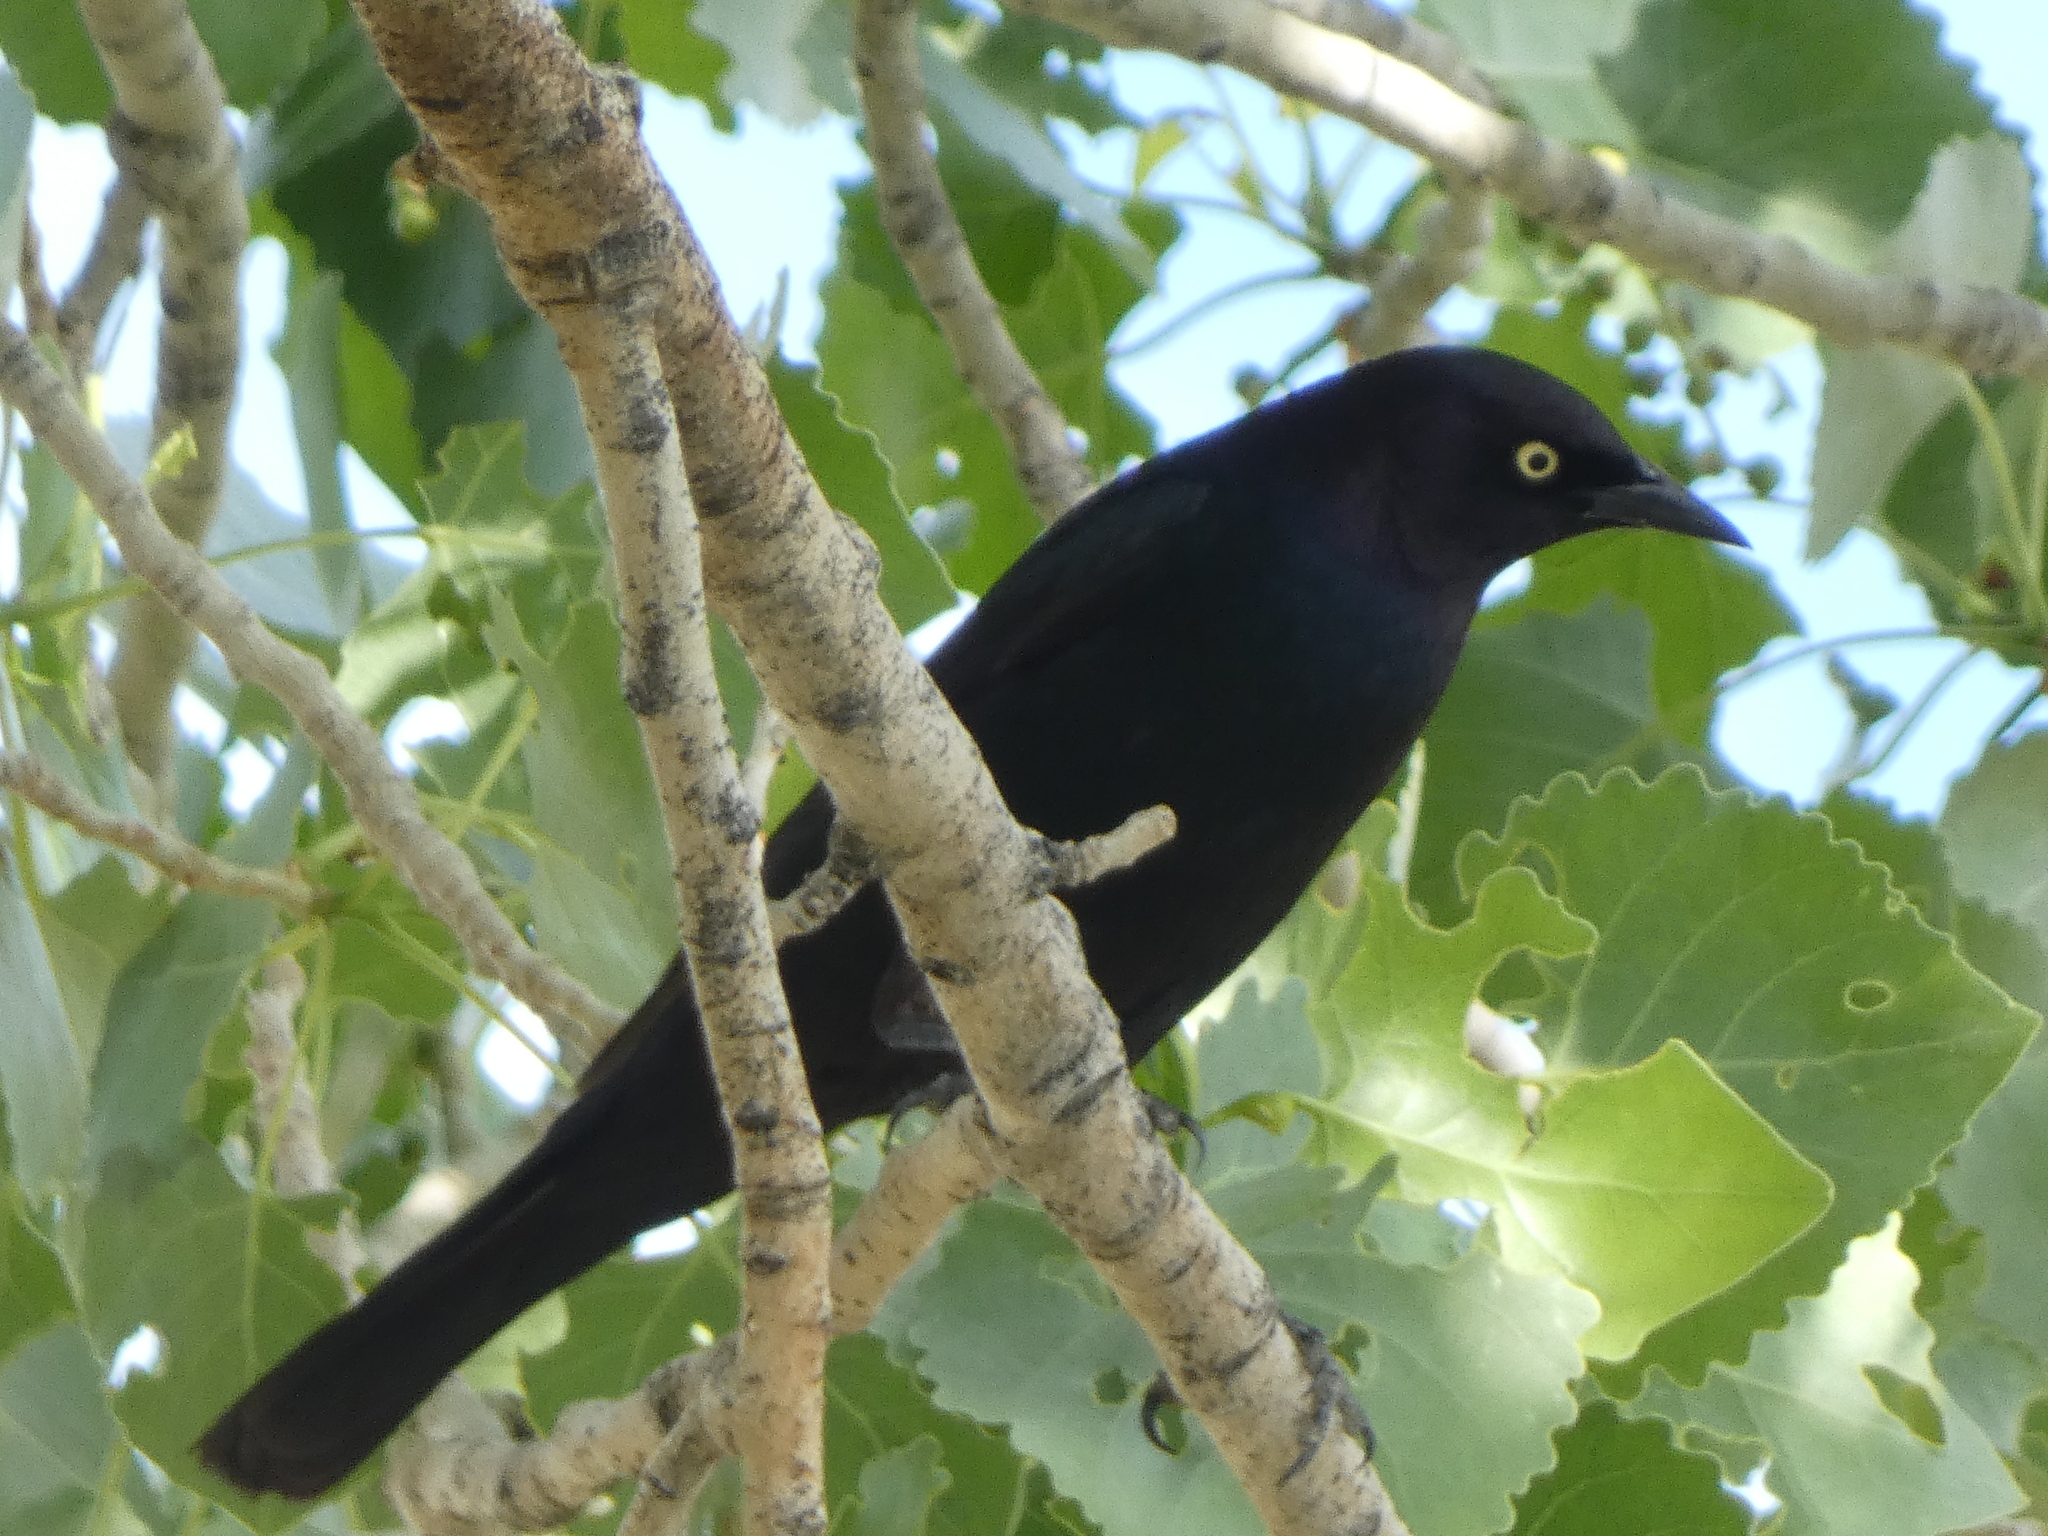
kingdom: Animalia
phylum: Chordata
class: Aves
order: Passeriformes
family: Icteridae
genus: Euphagus
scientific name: Euphagus cyanocephalus
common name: Brewer's blackbird
